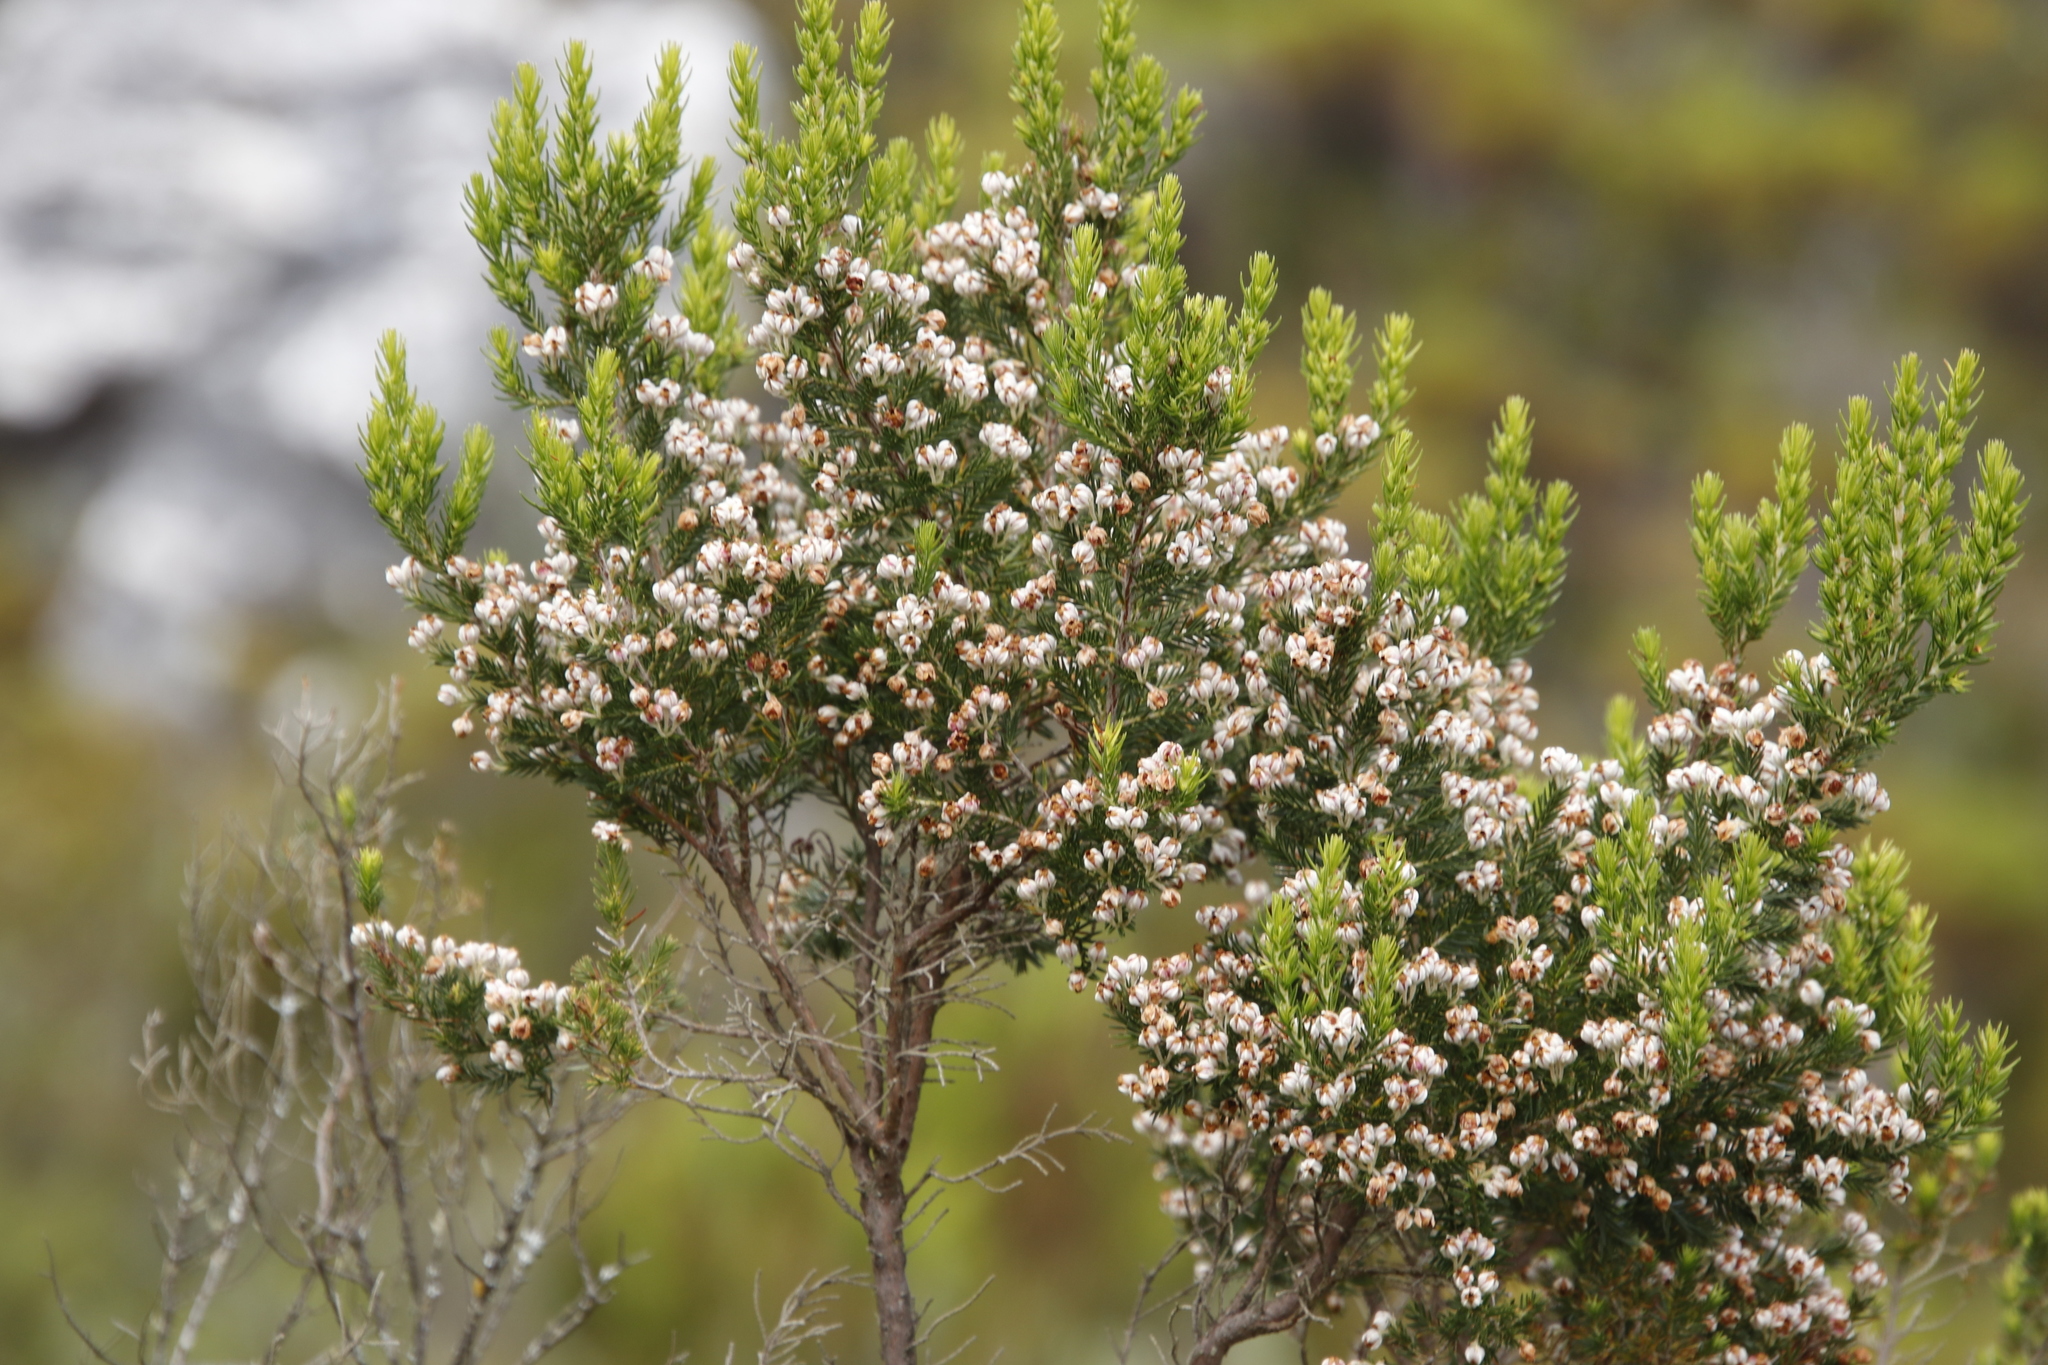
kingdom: Plantae
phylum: Tracheophyta
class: Magnoliopsida
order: Ericales
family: Ericaceae
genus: Erica
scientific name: Erica triflora
